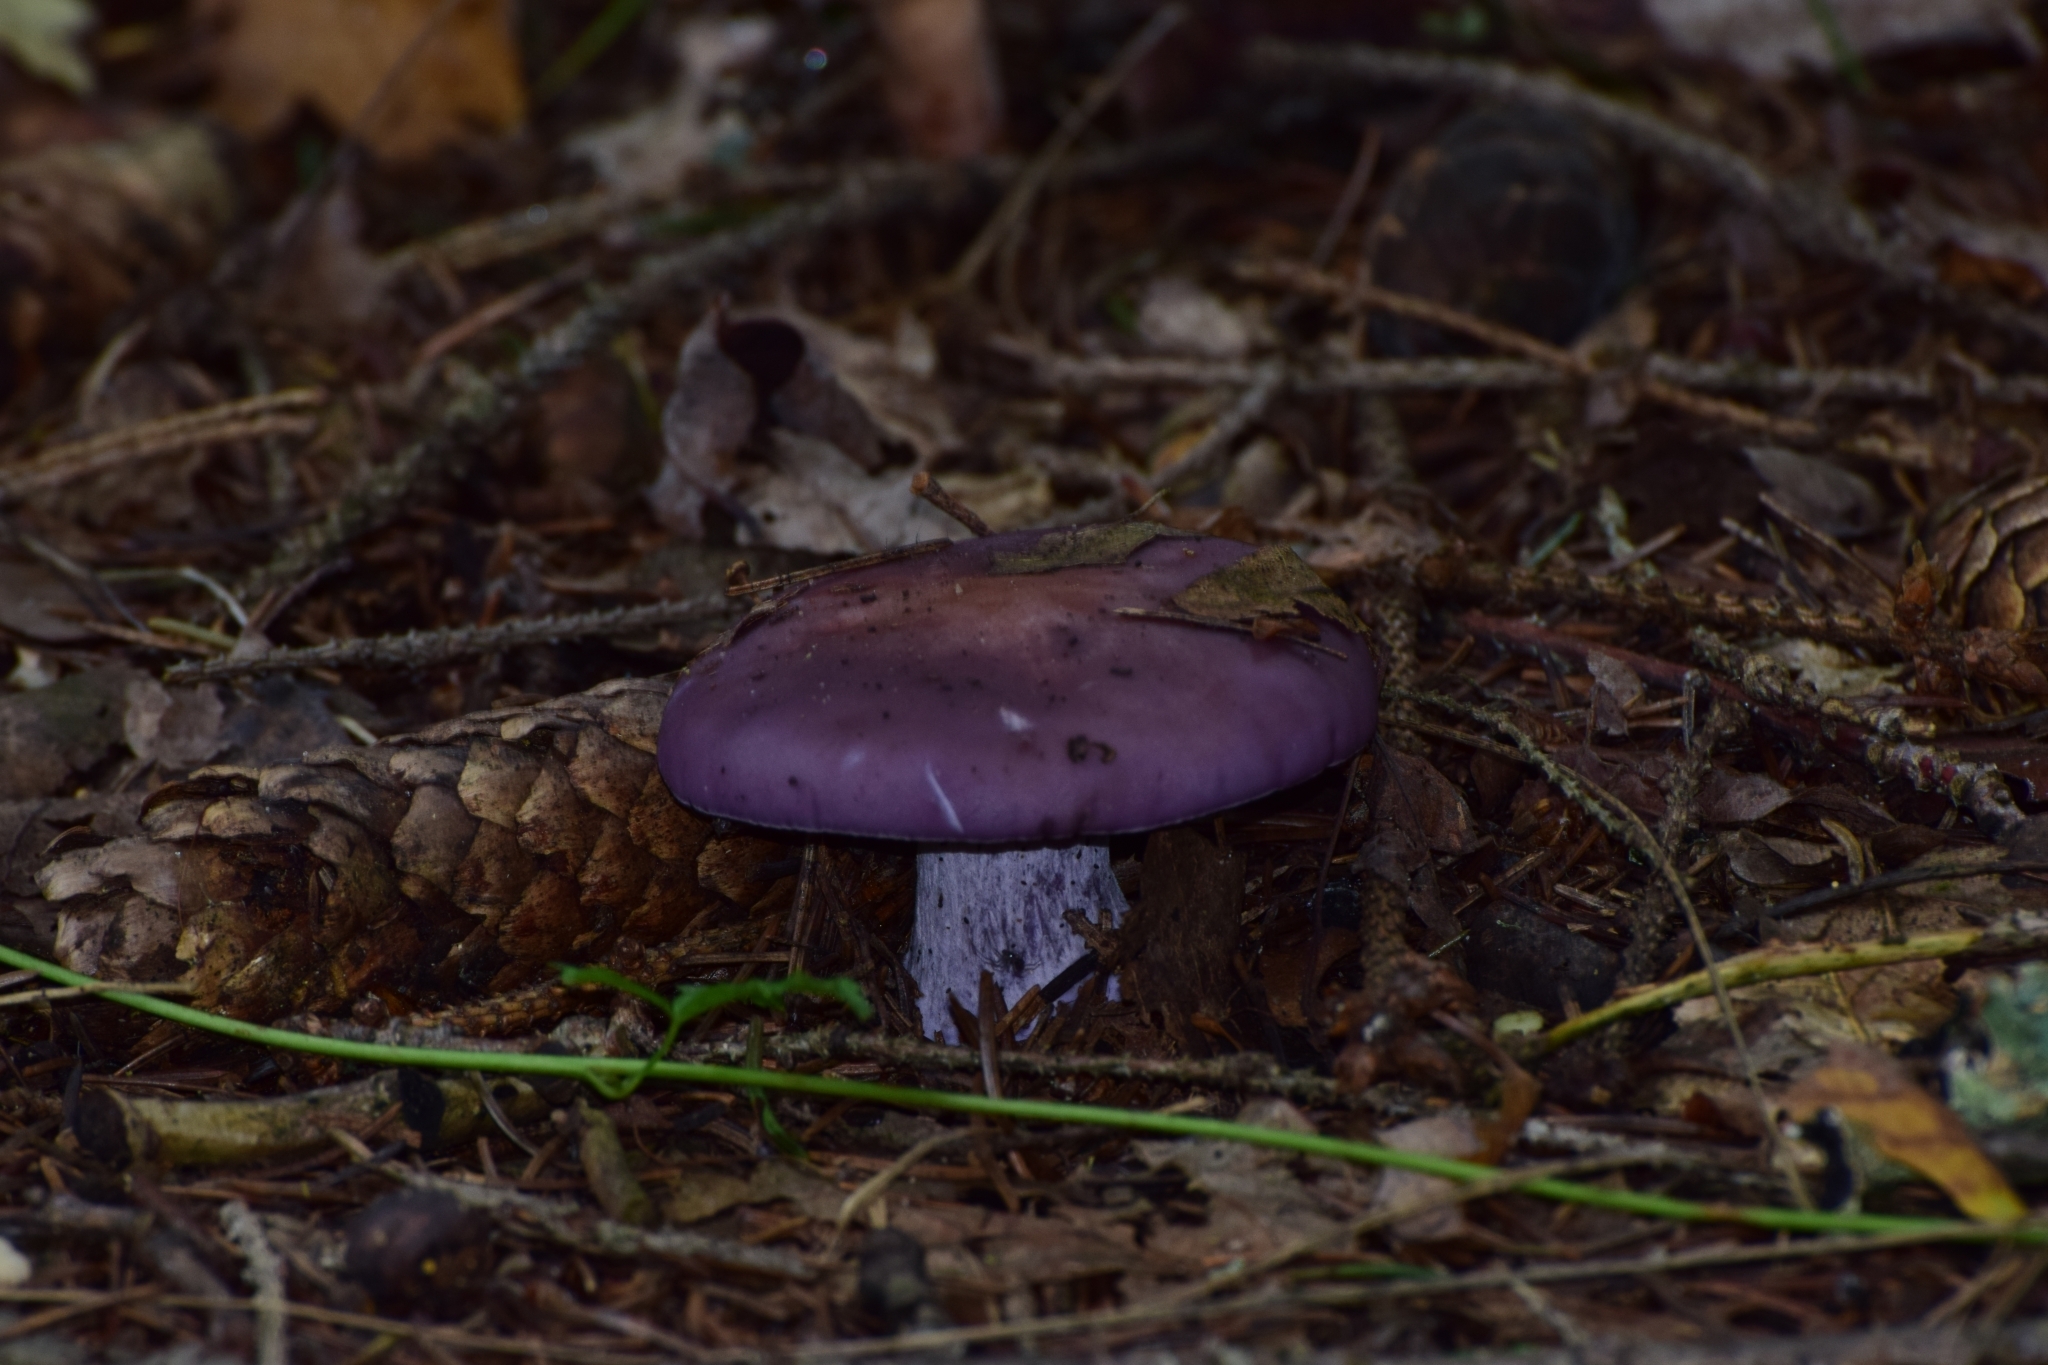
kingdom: Fungi
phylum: Basidiomycota
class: Agaricomycetes
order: Agaricales
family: Tricholomataceae
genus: Collybia
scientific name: Collybia
